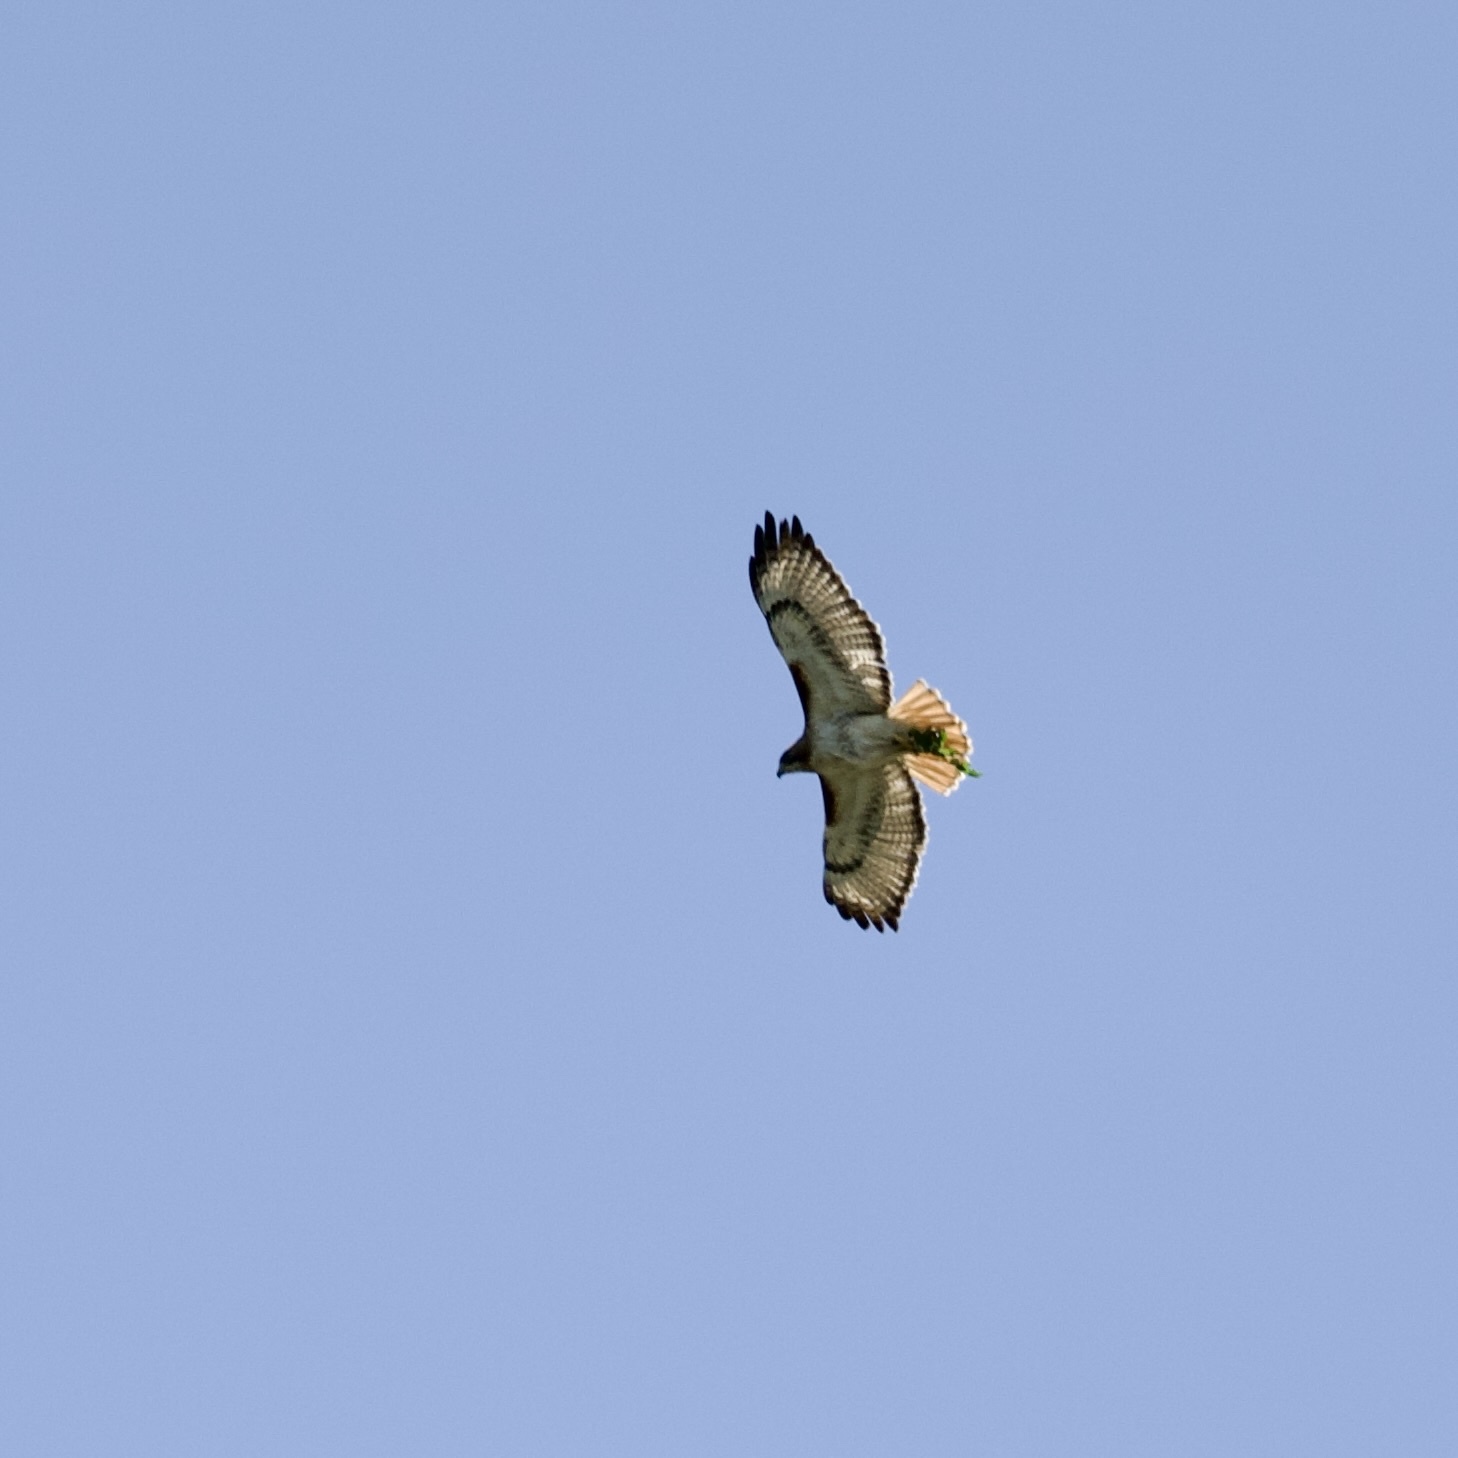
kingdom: Animalia
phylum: Chordata
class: Aves
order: Accipitriformes
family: Accipitridae
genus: Buteo
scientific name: Buteo jamaicensis
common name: Red-tailed hawk
